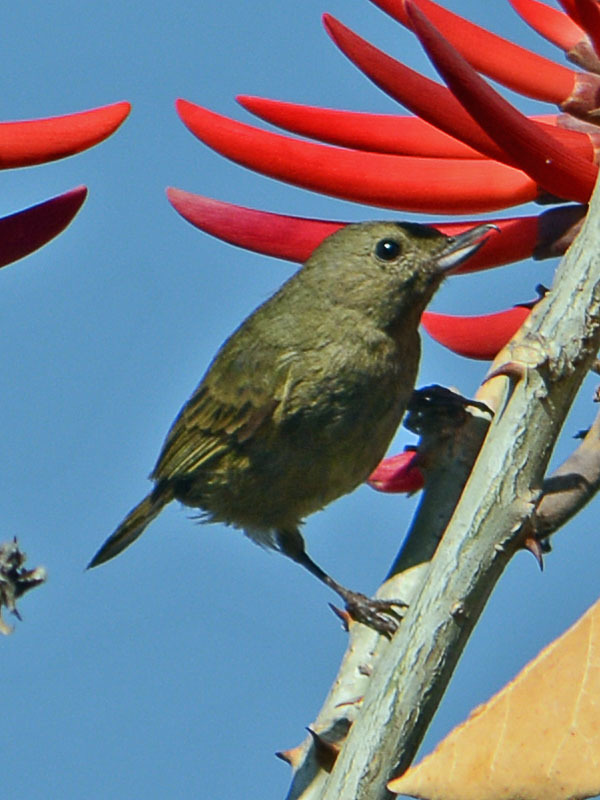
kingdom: Animalia
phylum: Chordata
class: Aves
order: Passeriformes
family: Thraupidae
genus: Diglossa
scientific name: Diglossa baritula
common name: Cinnamon-bellied flowerpiercer
